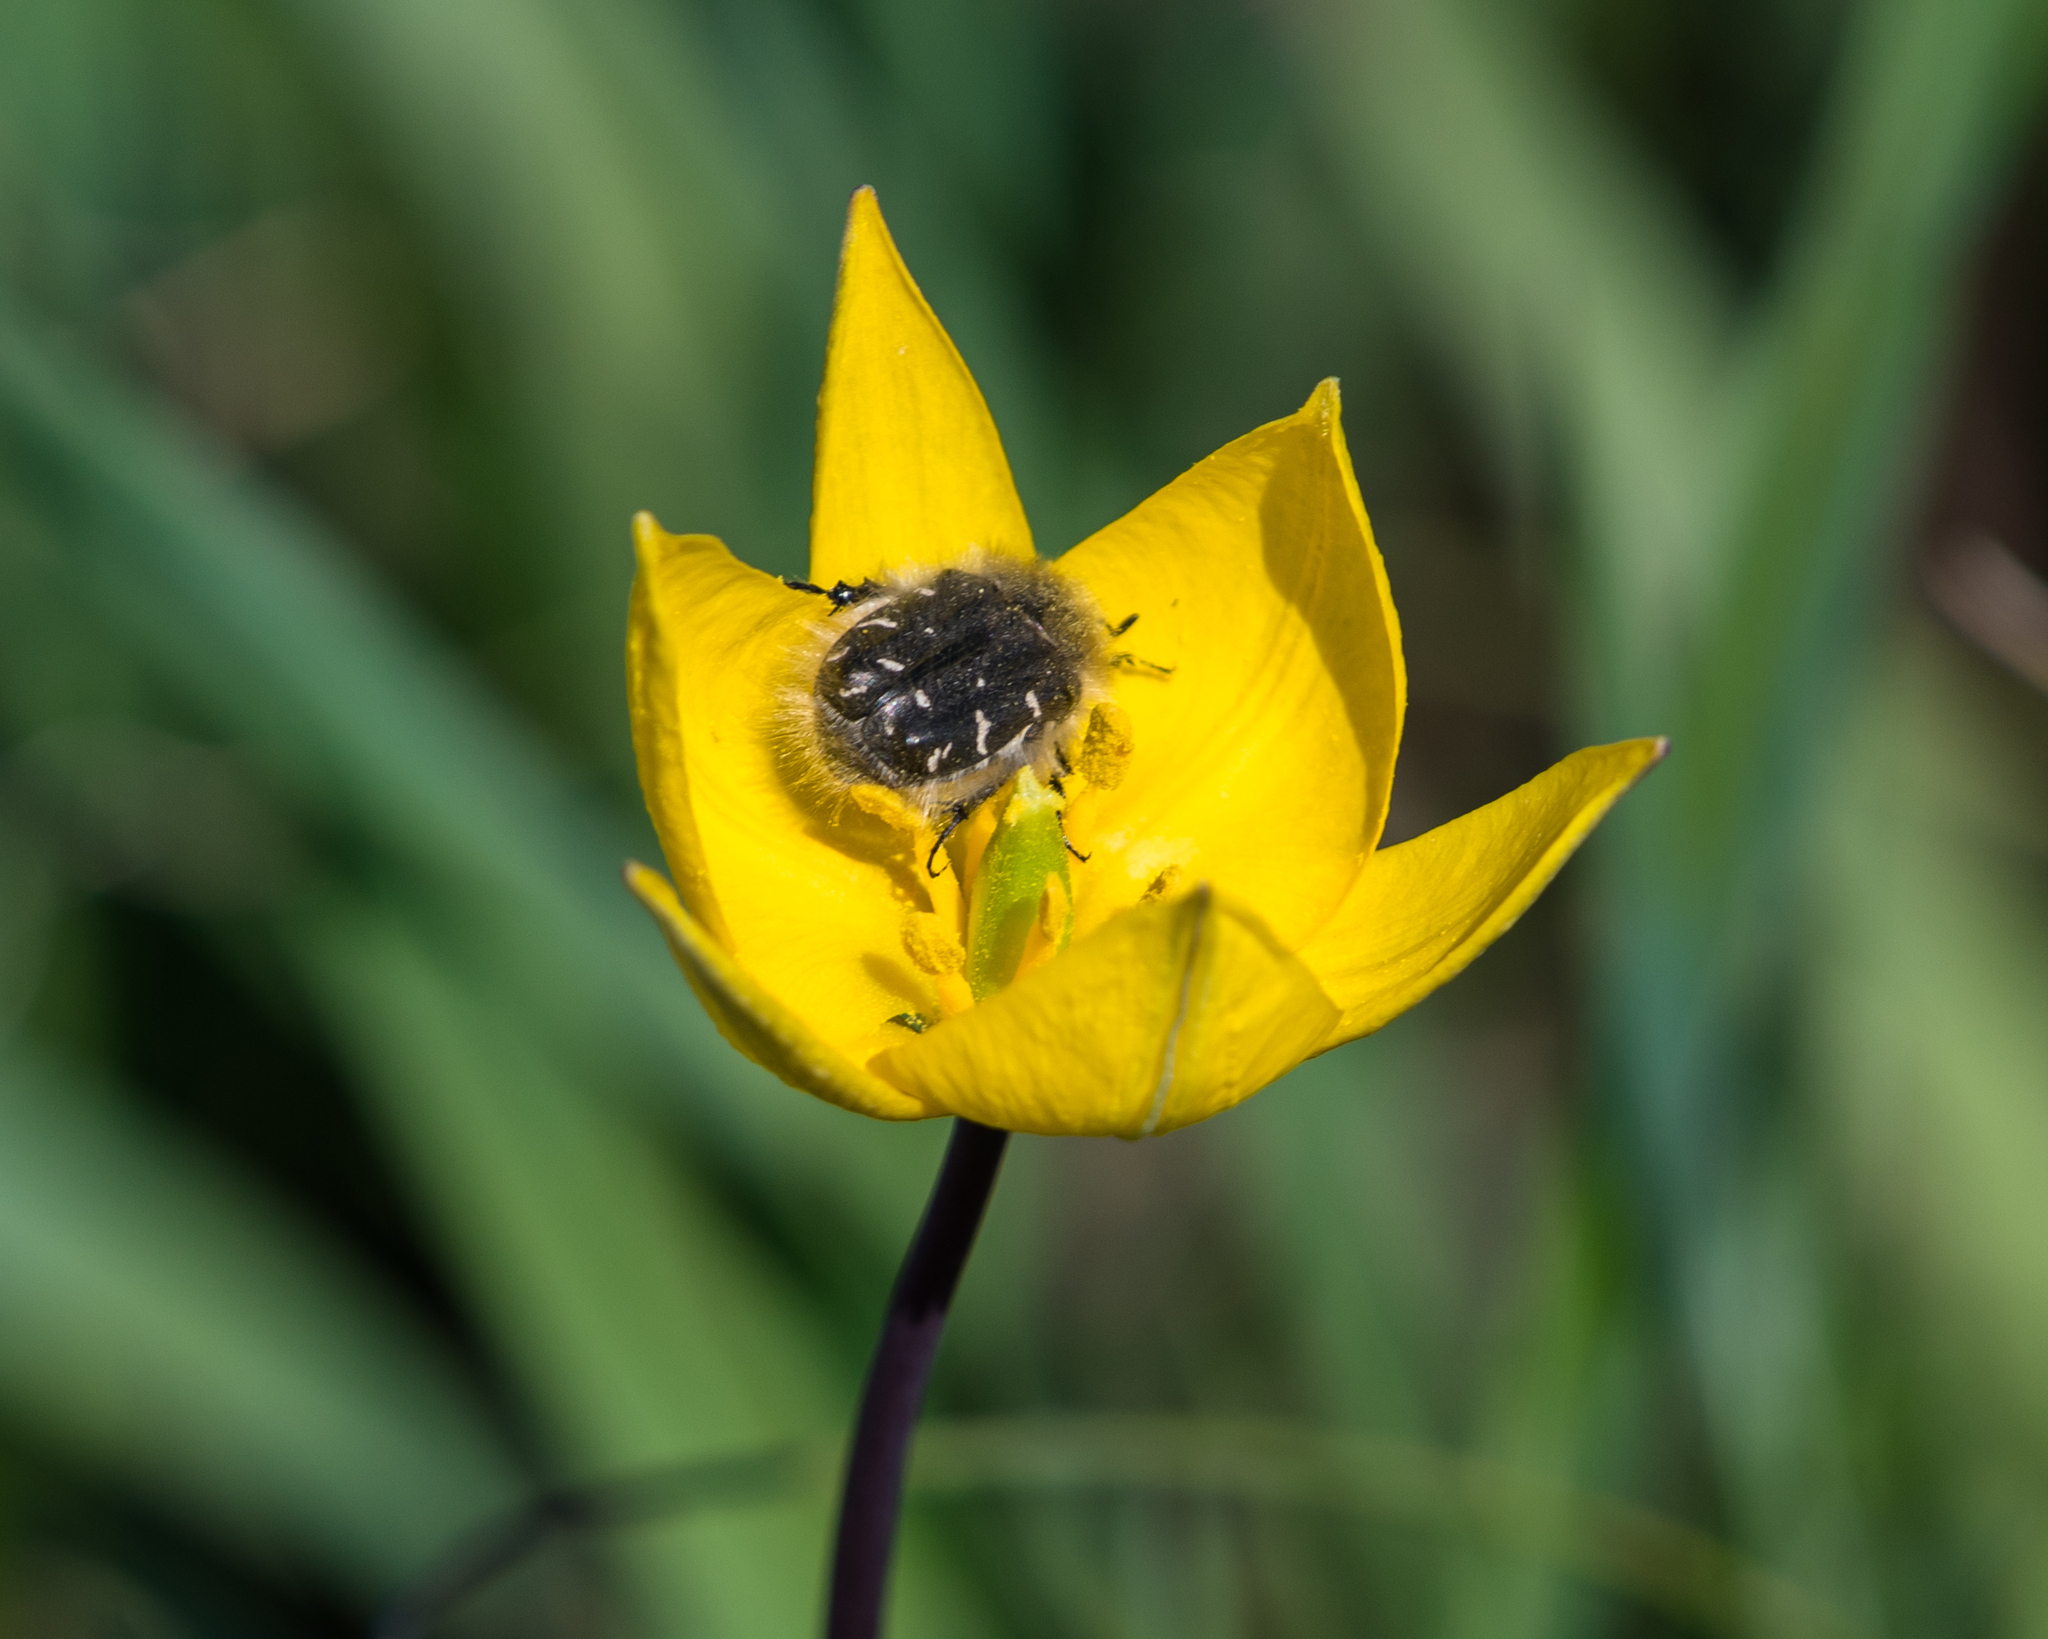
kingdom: Animalia
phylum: Arthropoda
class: Insecta
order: Coleoptera
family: Scarabaeidae
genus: Tropinota
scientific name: Tropinota hirta
